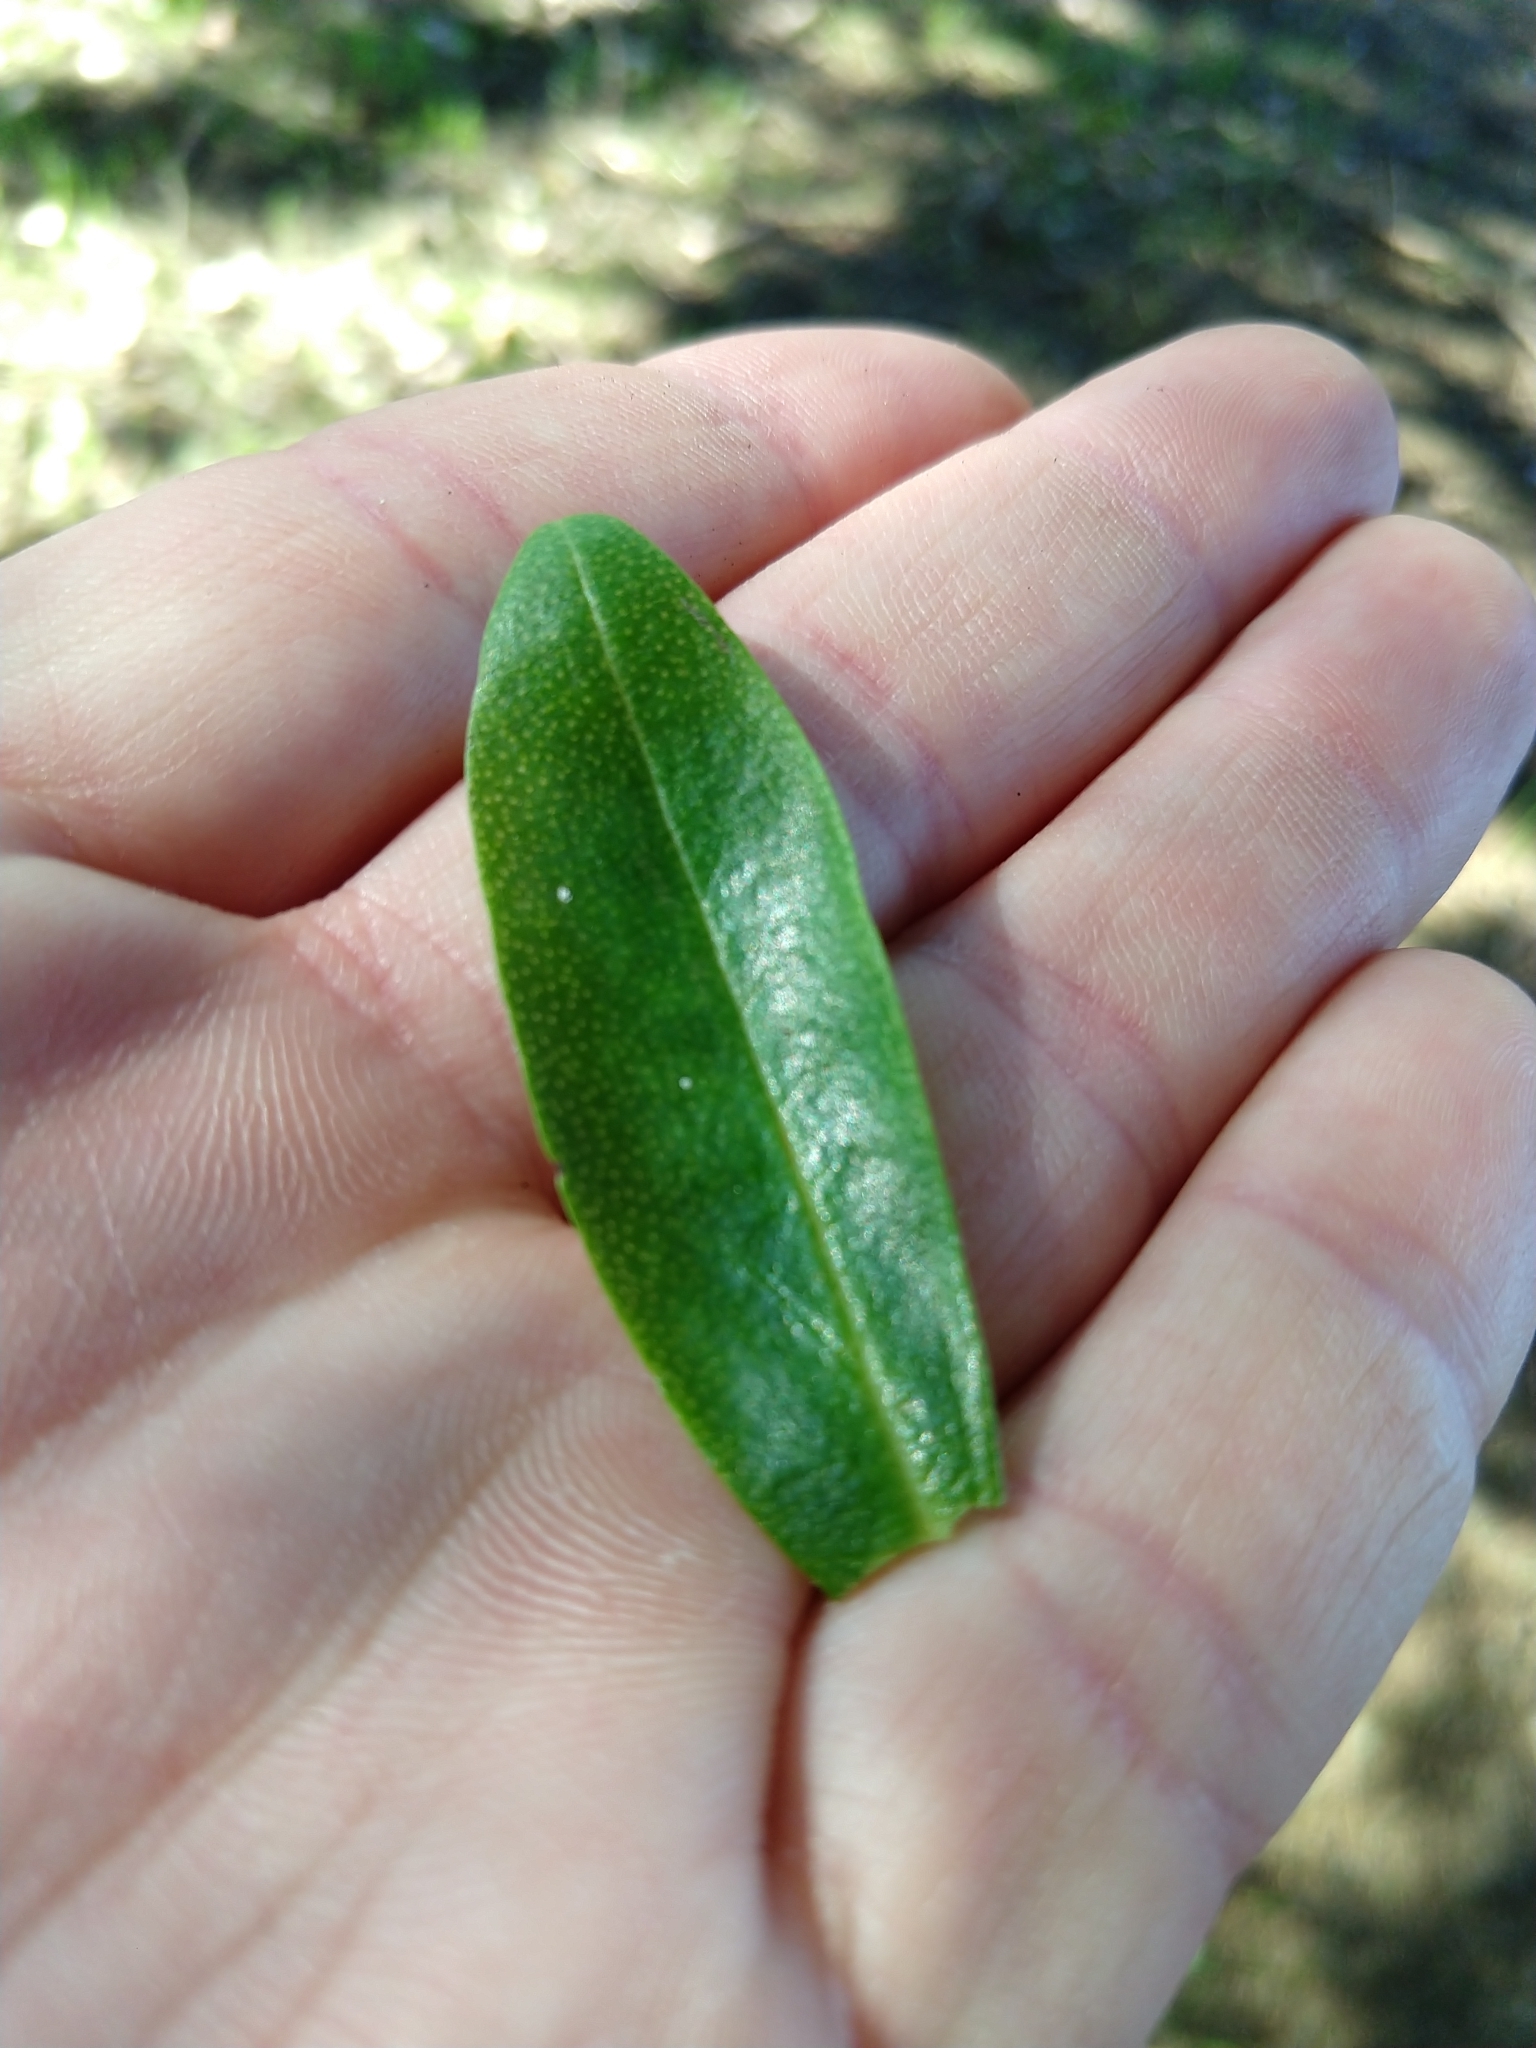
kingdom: Plantae
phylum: Tracheophyta
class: Magnoliopsida
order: Lamiales
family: Scrophulariaceae
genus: Myoporum
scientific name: Myoporum laetum
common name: Ngaio tree
